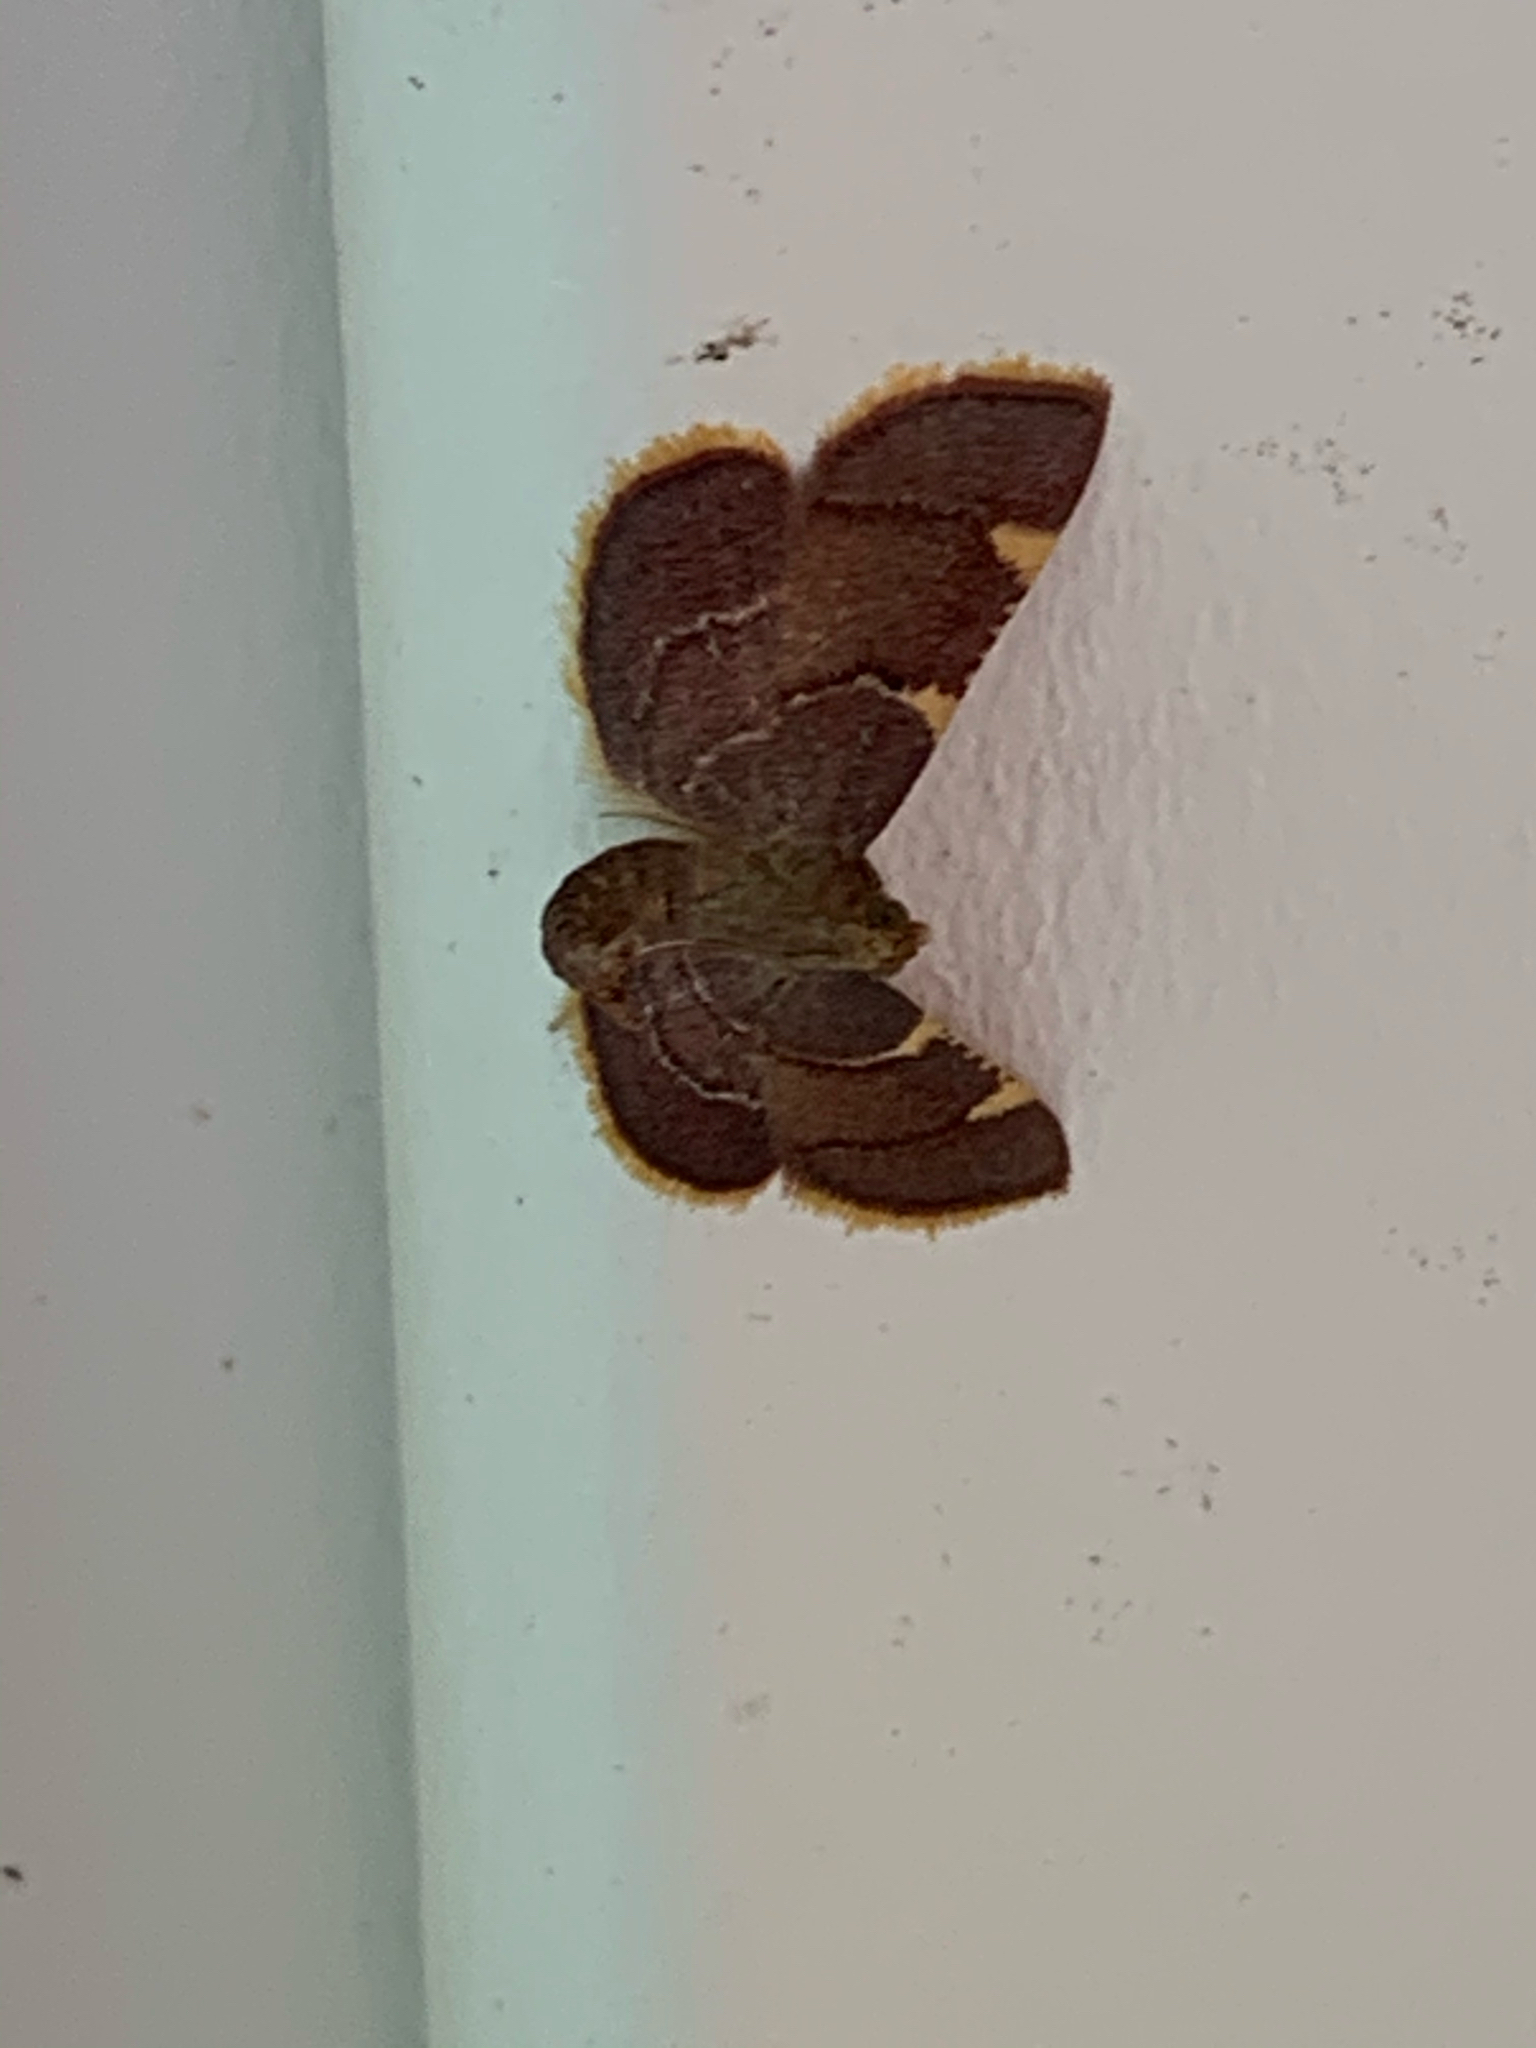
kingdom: Animalia
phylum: Arthropoda
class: Insecta
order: Lepidoptera
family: Pyralidae
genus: Hypsopygia
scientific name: Hypsopygia olinalis
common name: Yellow-fringed dolichomia moth
